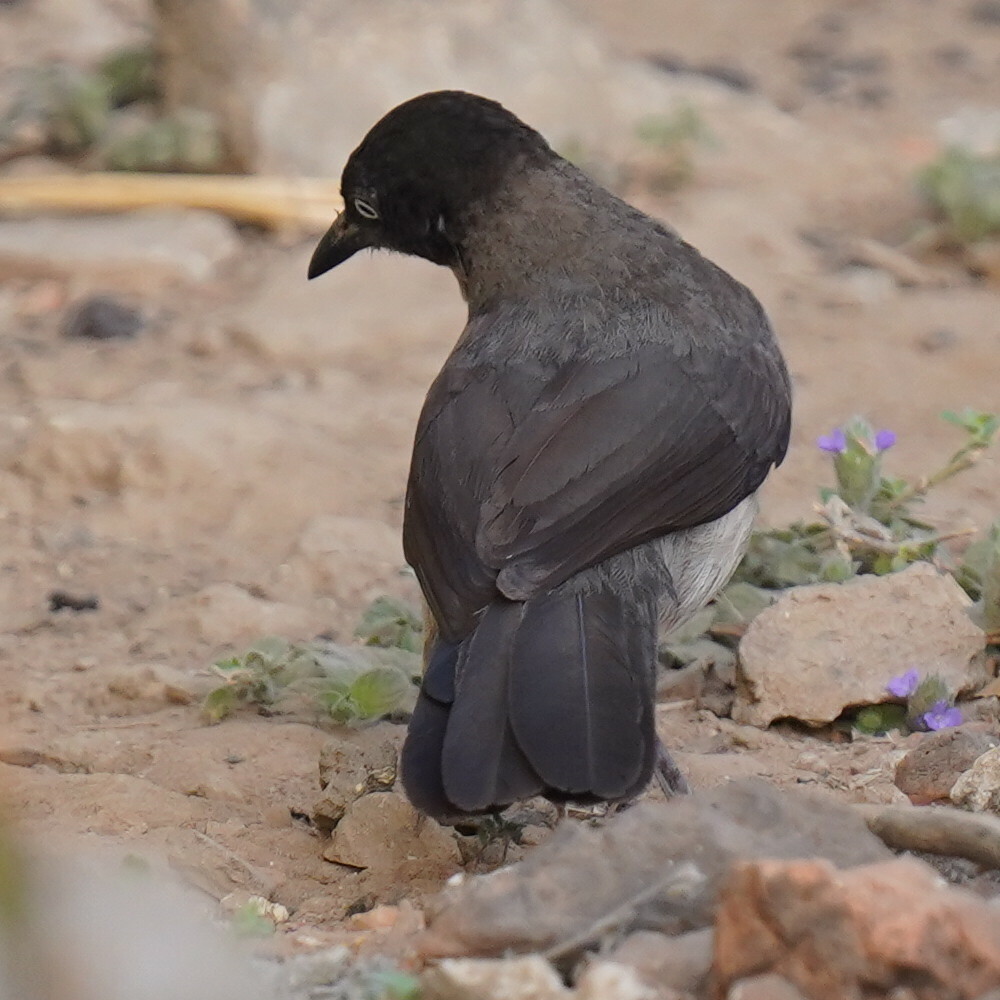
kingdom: Animalia
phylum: Chordata
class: Aves
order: Passeriformes
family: Leiothrichidae
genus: Turdoides
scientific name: Turdoides reinwardtii
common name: Blackcap babbler
